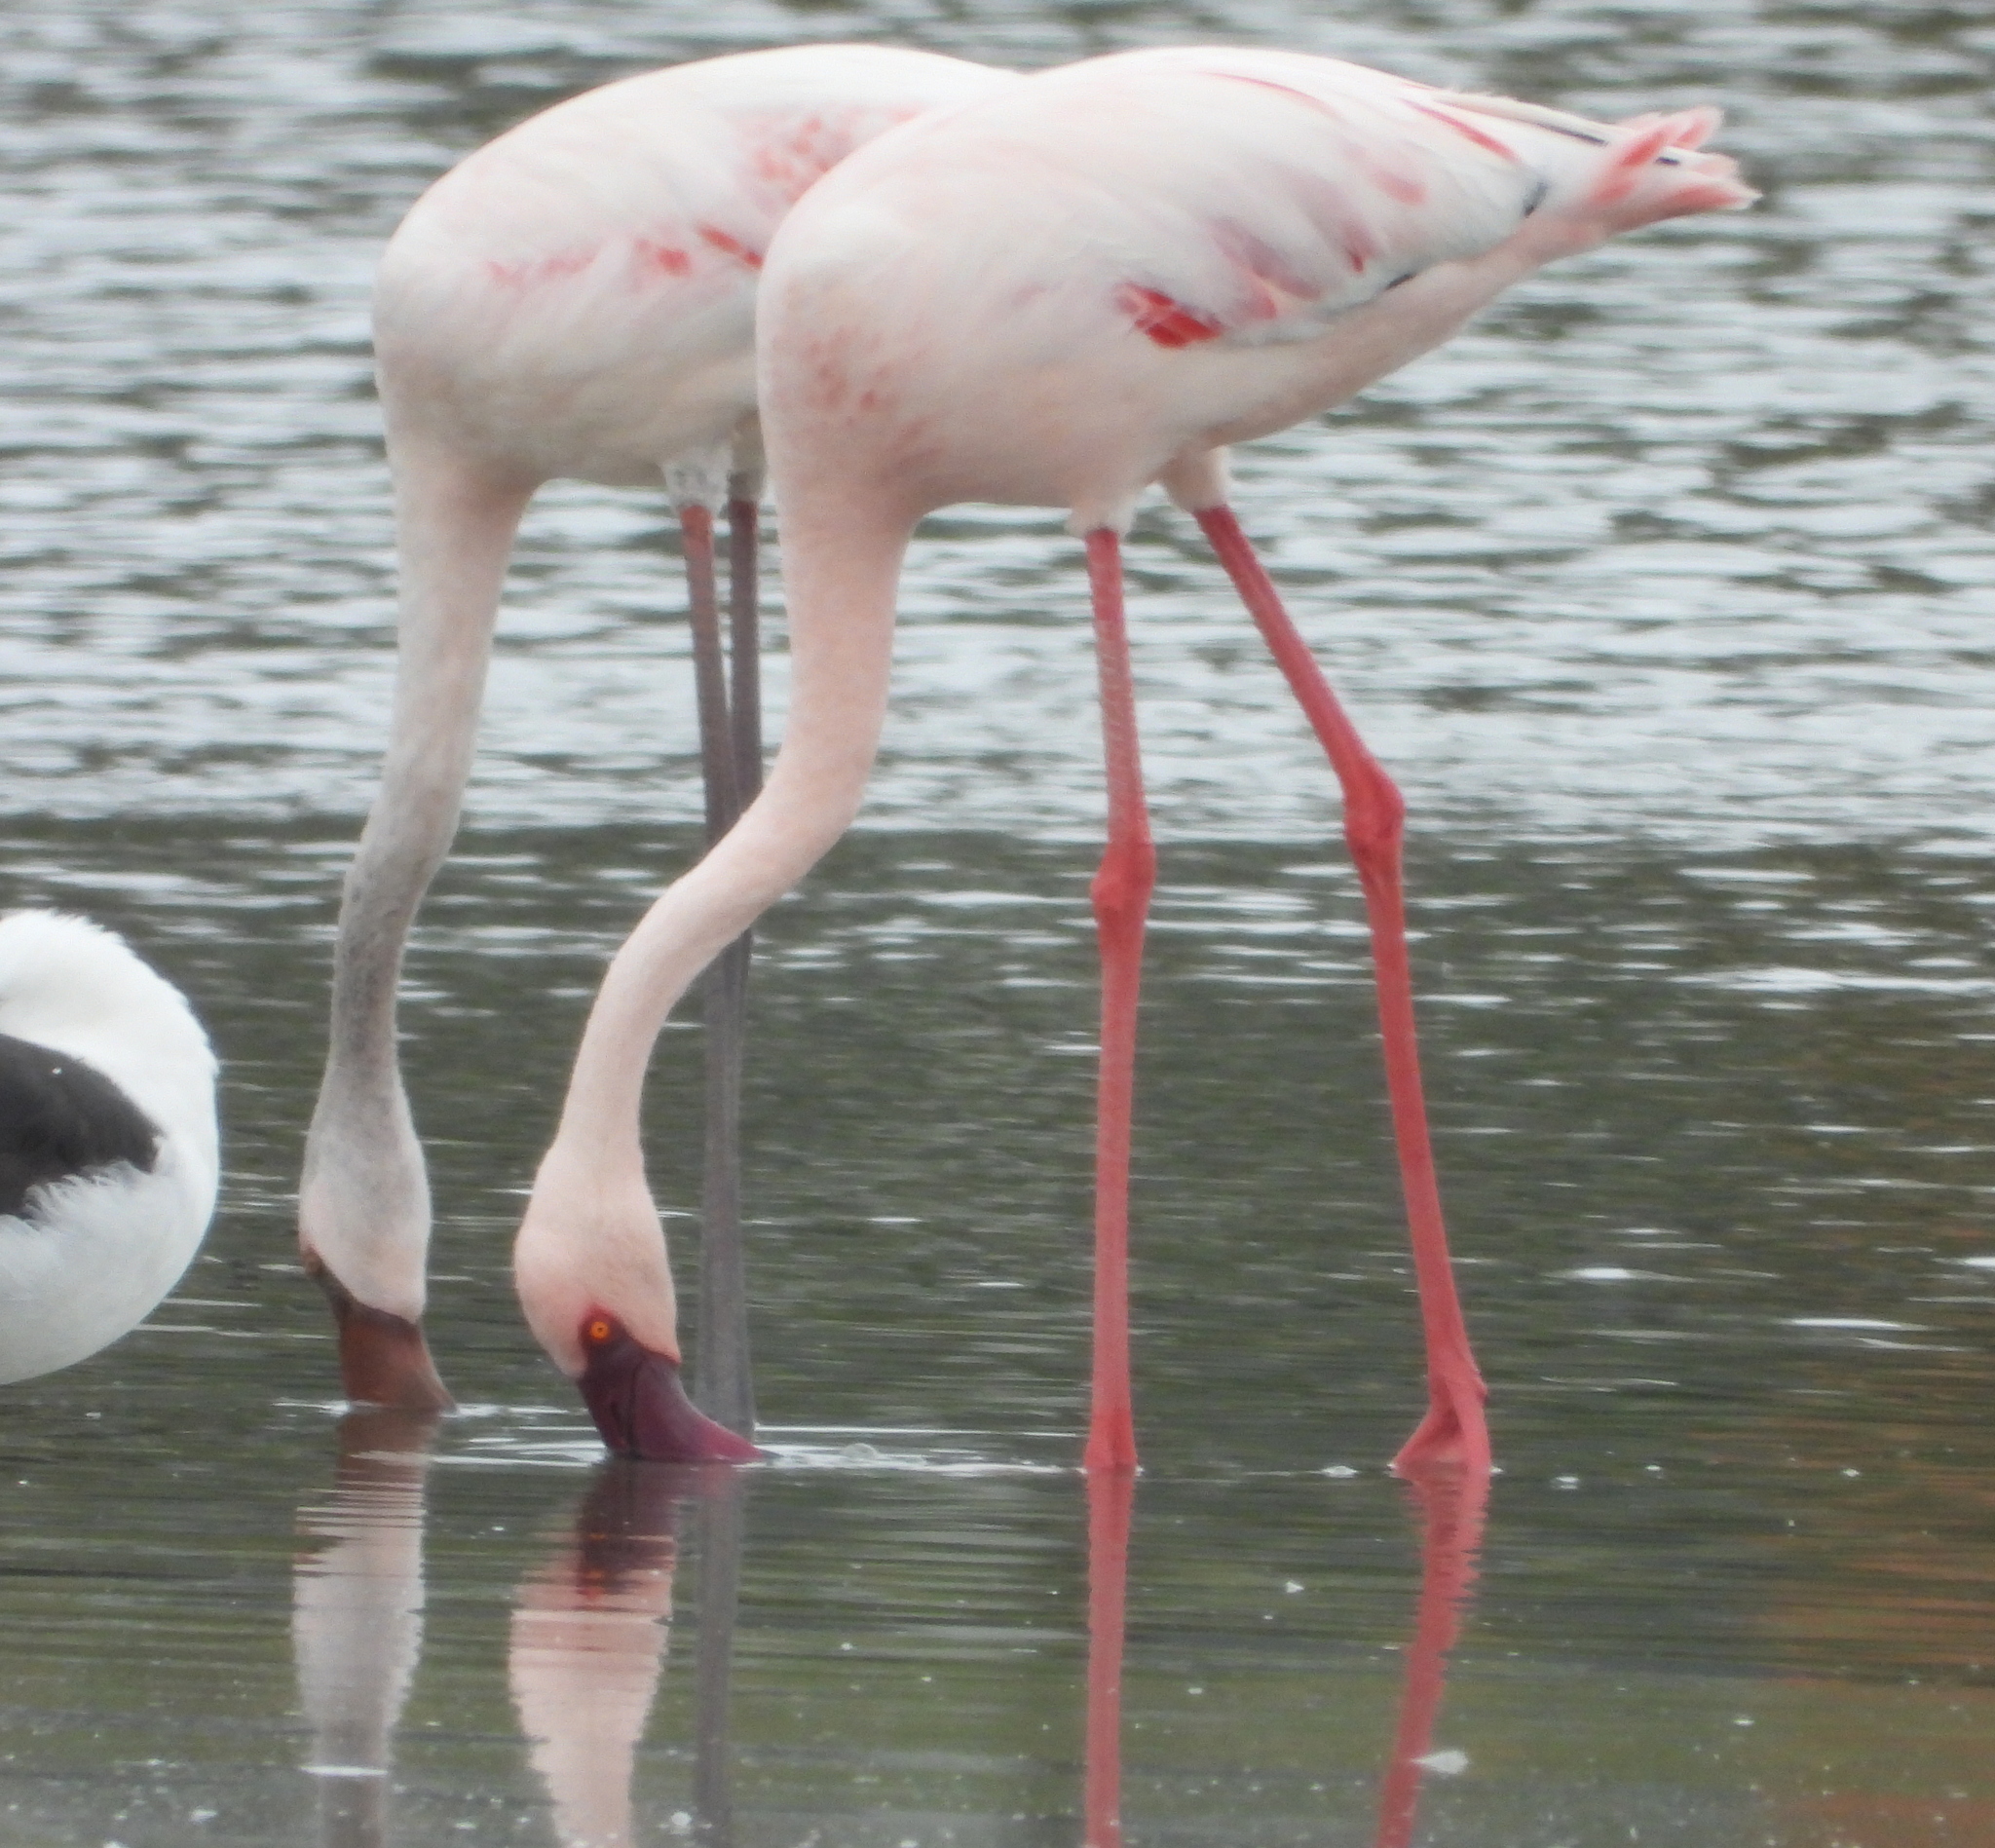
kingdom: Animalia
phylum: Chordata
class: Aves
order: Phoenicopteriformes
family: Phoenicopteridae
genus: Phoeniconaias
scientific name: Phoeniconaias minor
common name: Lesser flamingo
